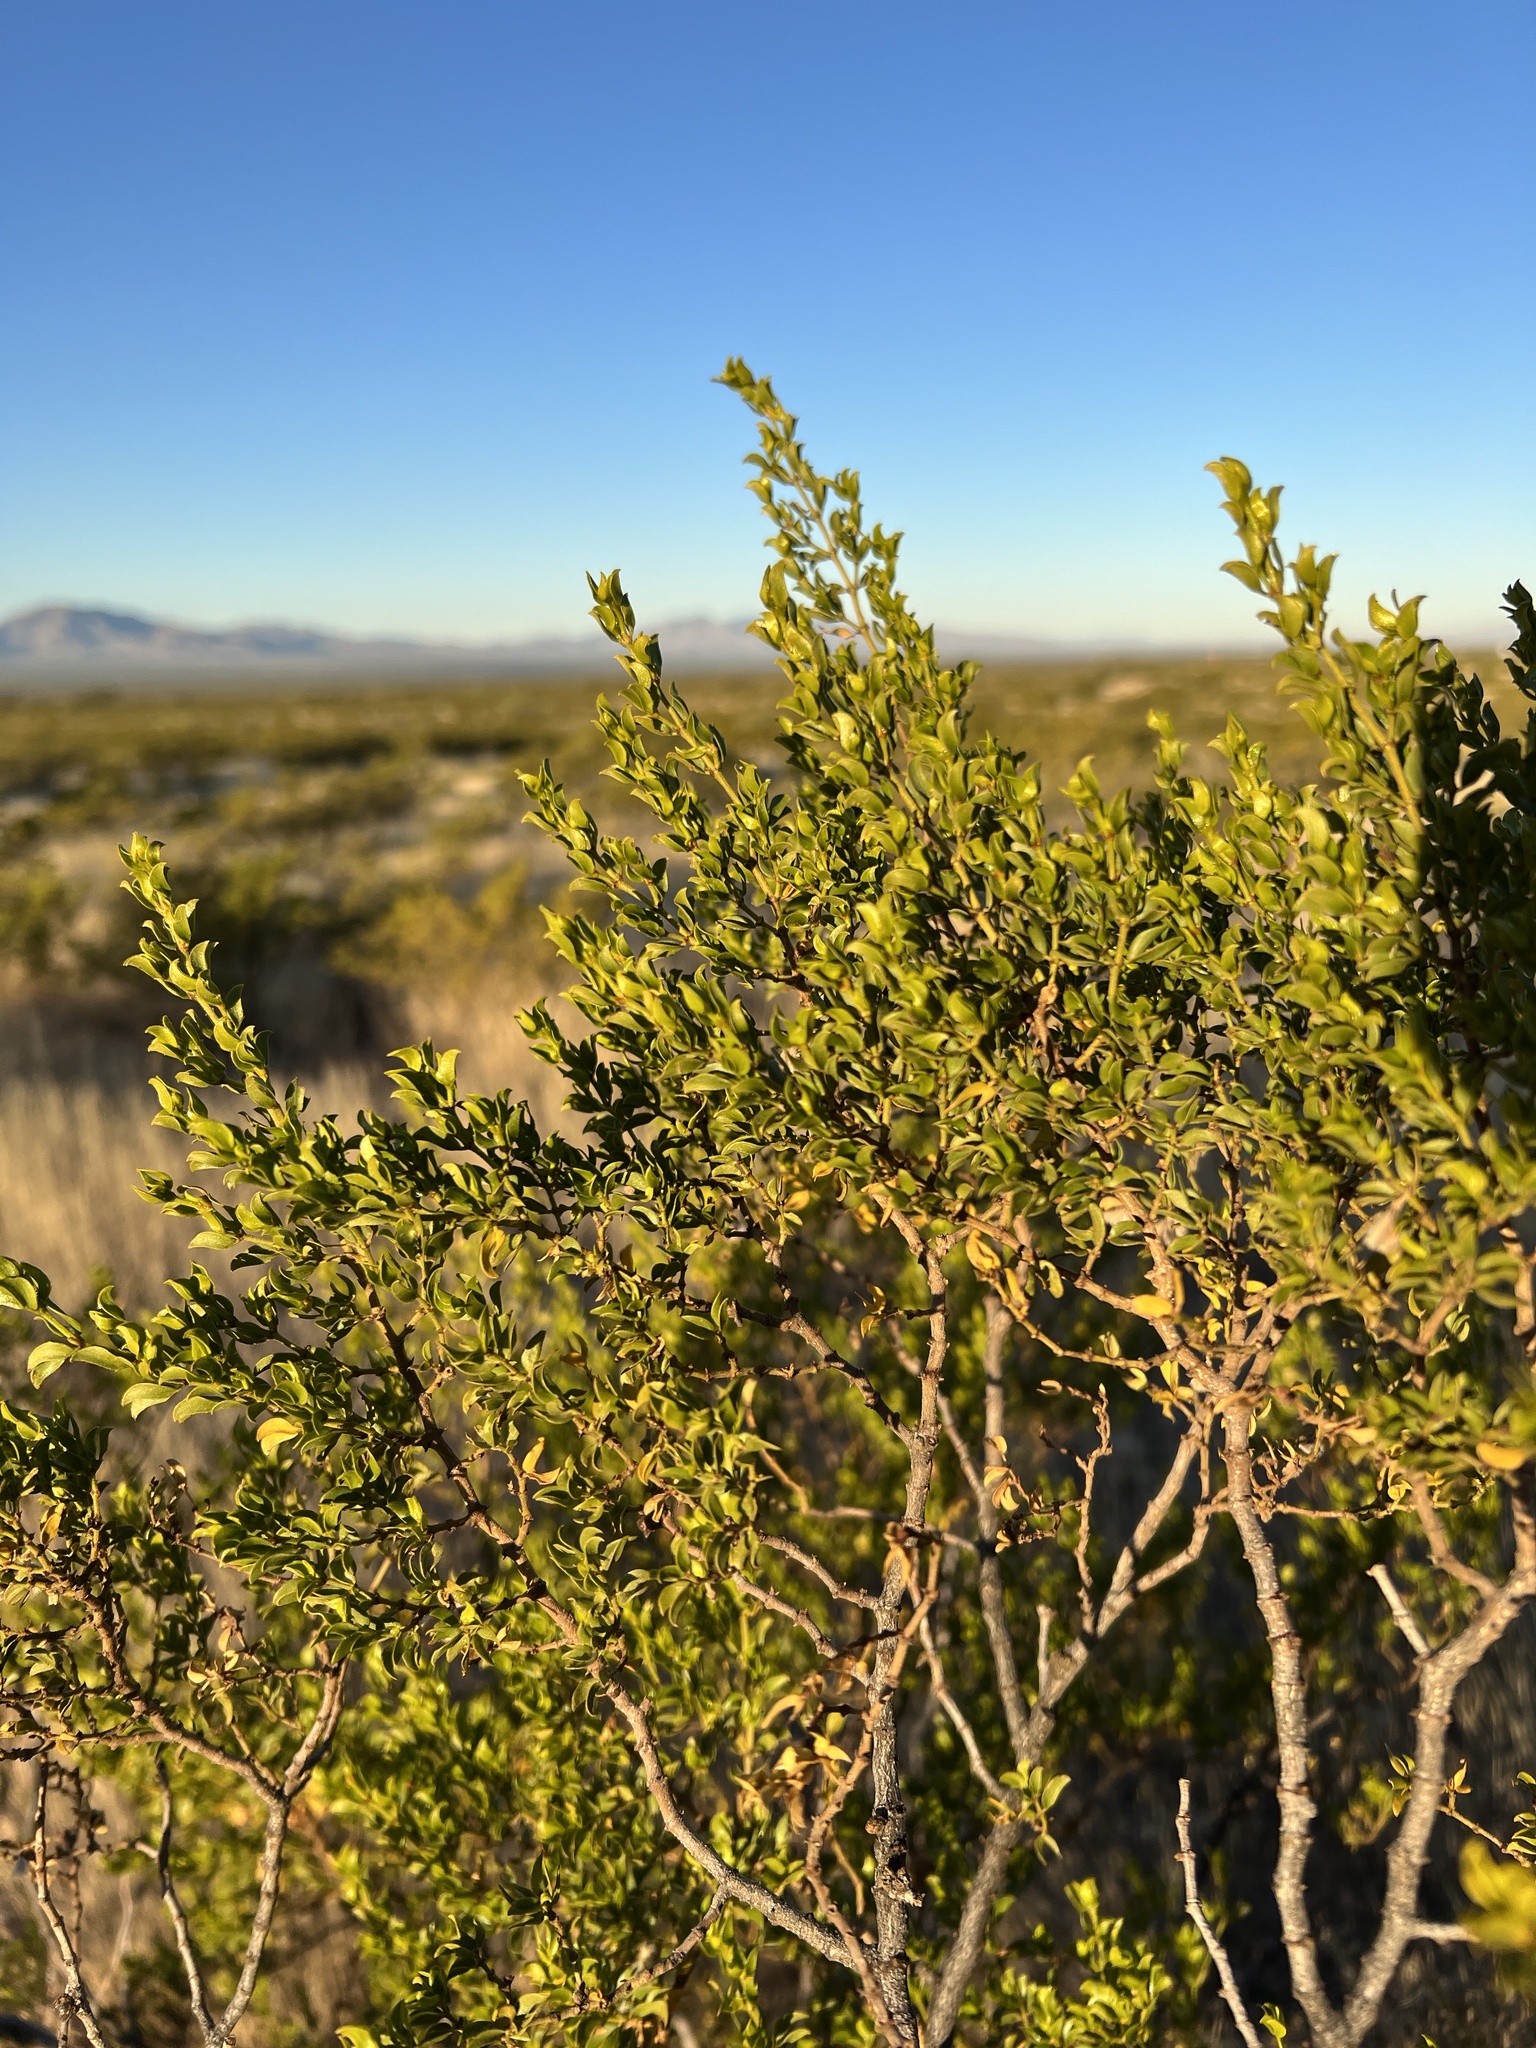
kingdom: Plantae
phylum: Tracheophyta
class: Magnoliopsida
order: Zygophyllales
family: Zygophyllaceae
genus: Larrea
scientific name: Larrea tridentata
